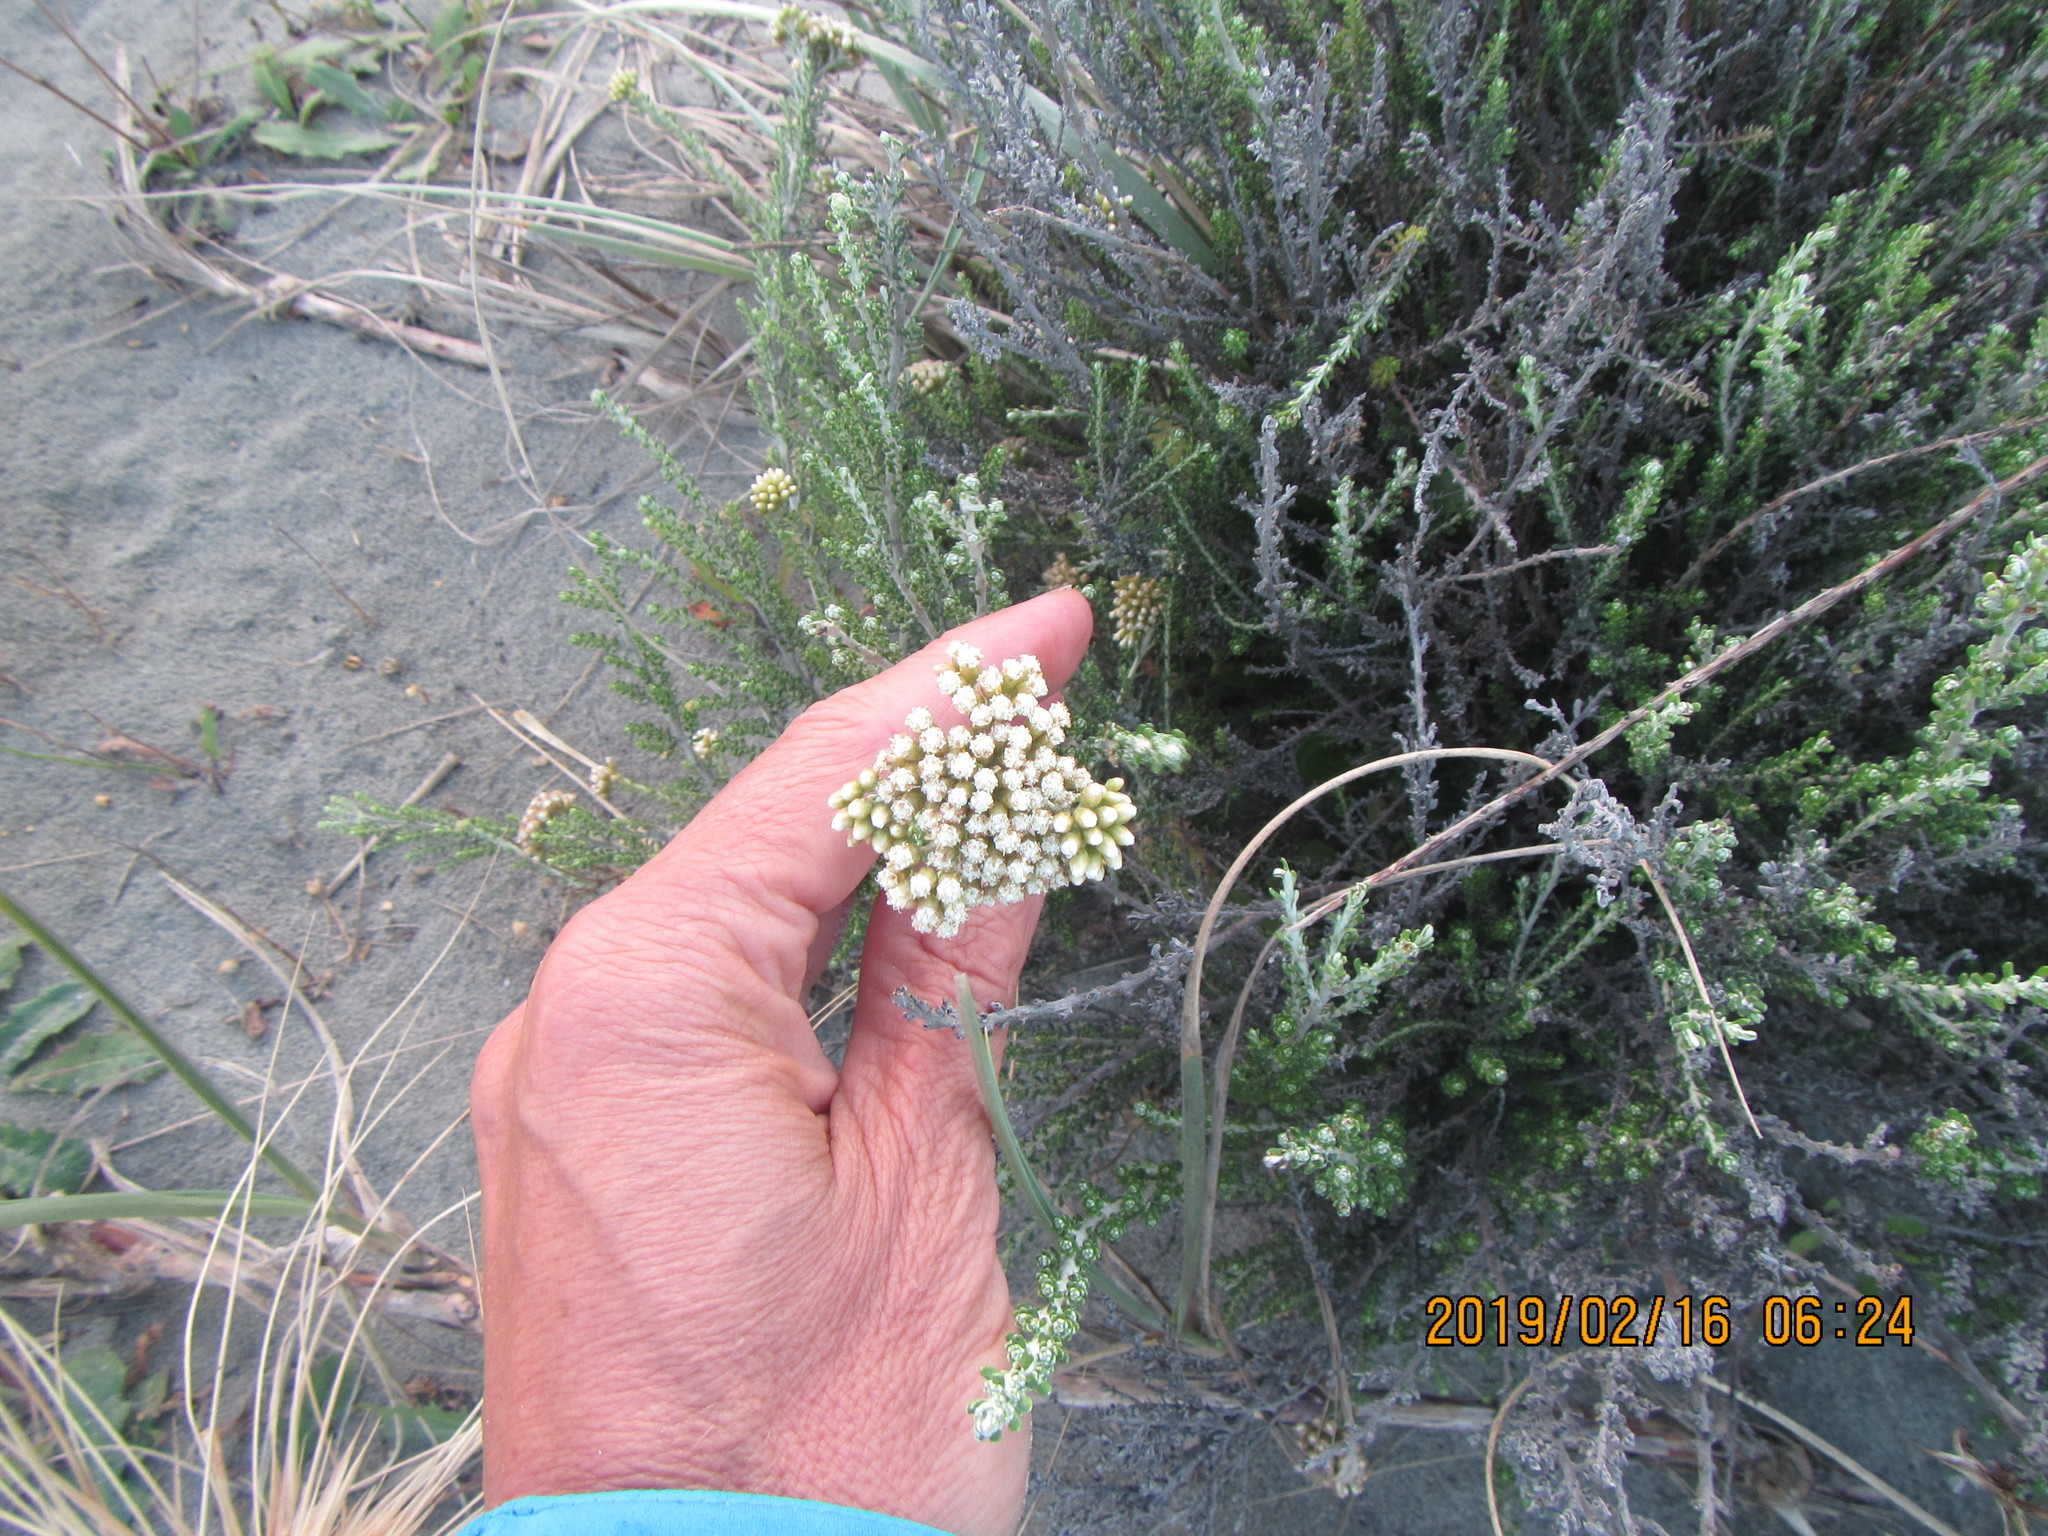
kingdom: Plantae
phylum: Tracheophyta
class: Magnoliopsida
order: Asterales
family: Asteraceae
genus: Ozothamnus
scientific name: Ozothamnus leptophyllus
